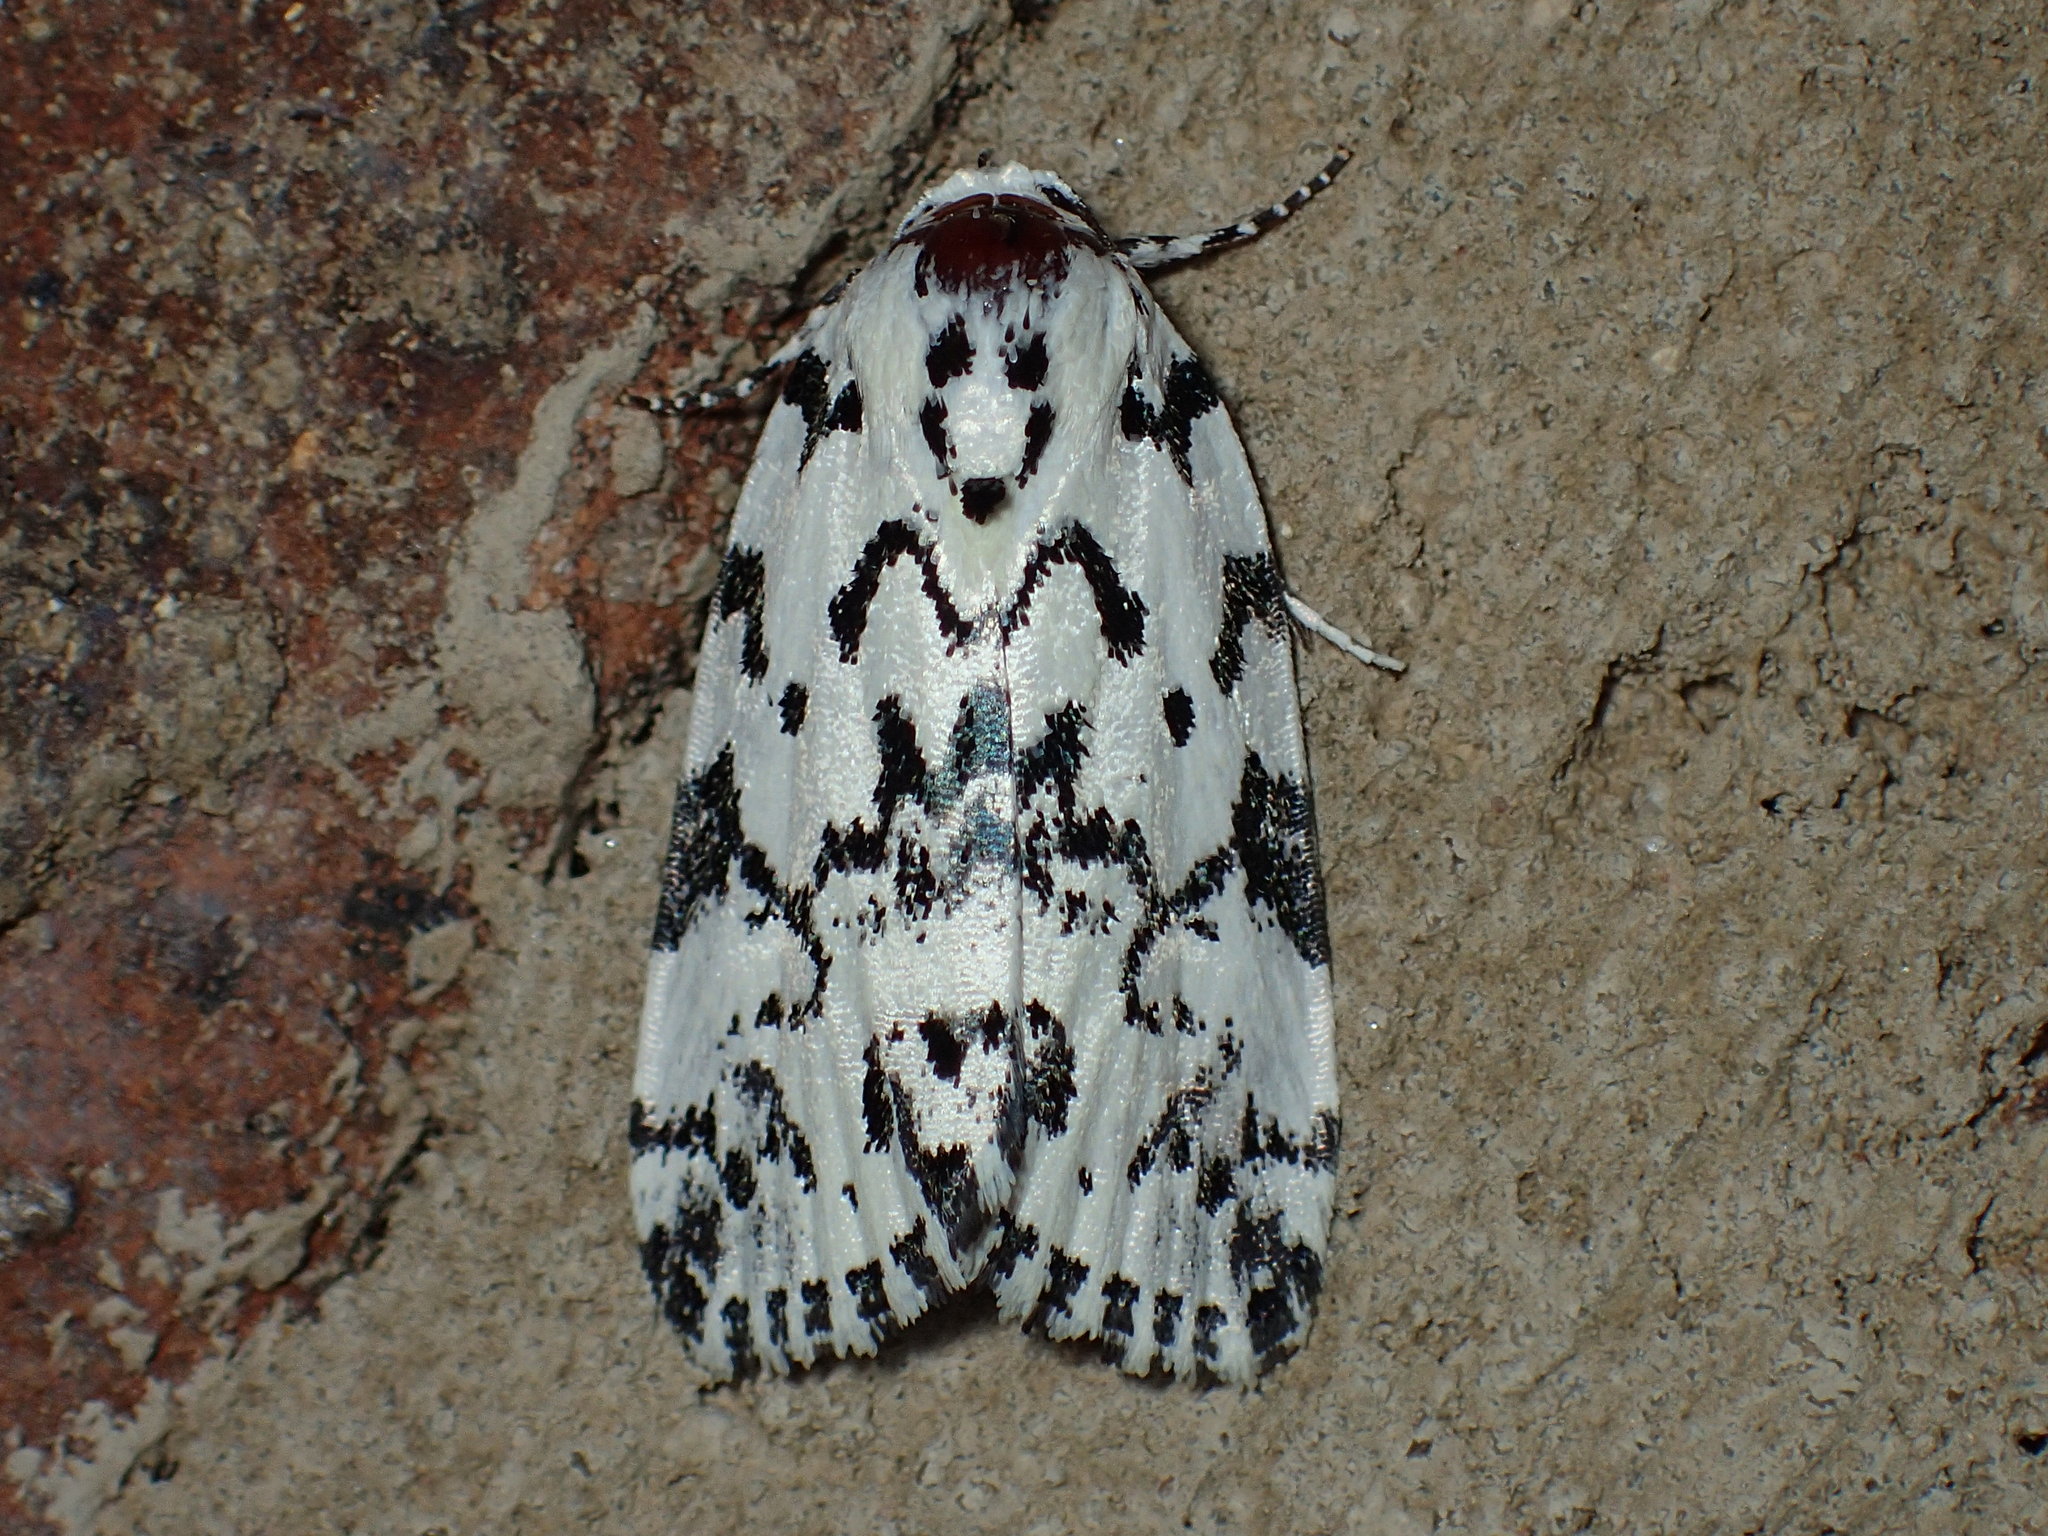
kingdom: Animalia
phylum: Arthropoda
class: Insecta
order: Lepidoptera
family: Noctuidae
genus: Polygrammate
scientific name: Polygrammate hebraeicum
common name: Hebrew moth
